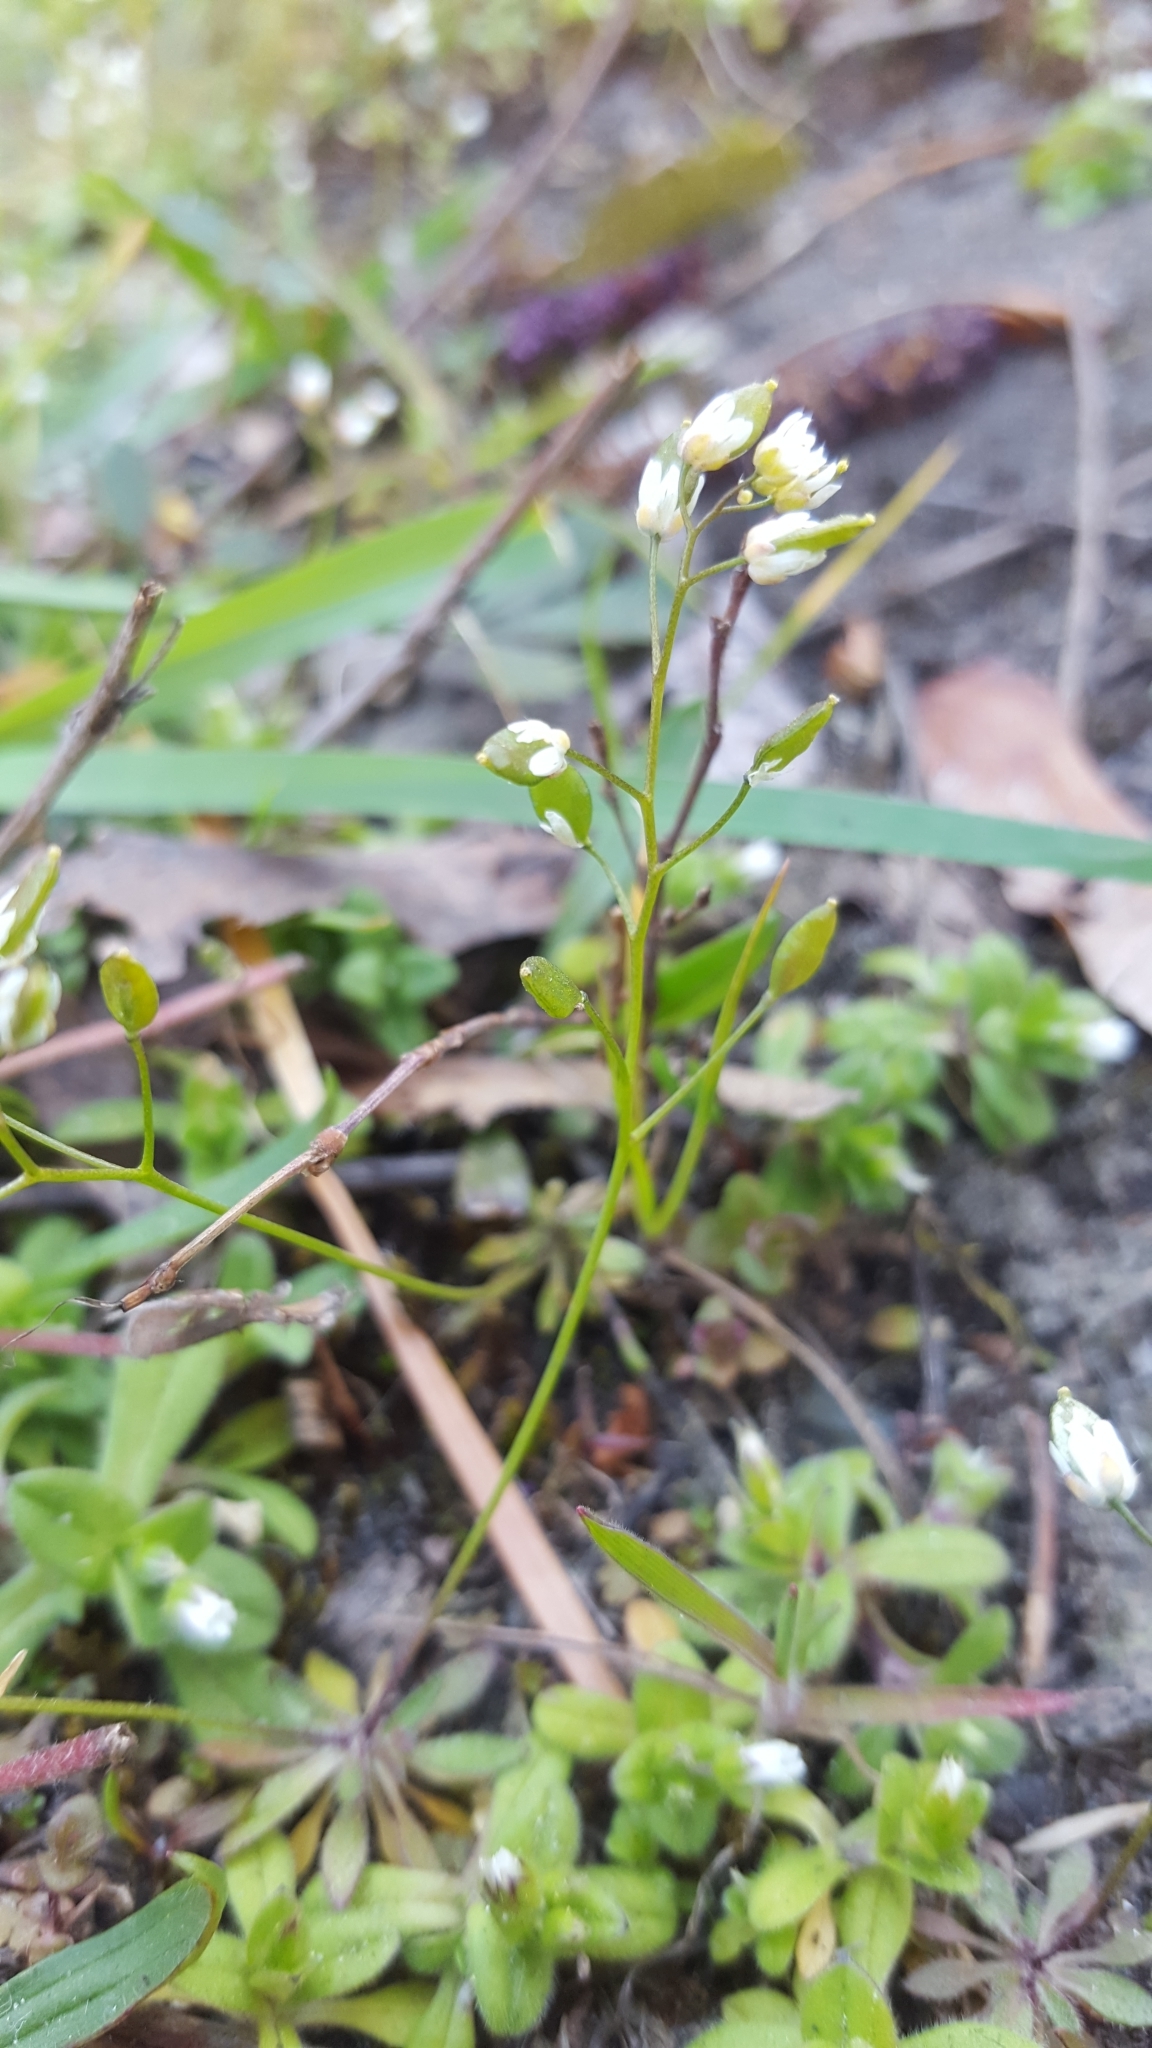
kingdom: Plantae
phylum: Tracheophyta
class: Magnoliopsida
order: Brassicales
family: Brassicaceae
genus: Draba
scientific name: Draba verna
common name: Spring draba
